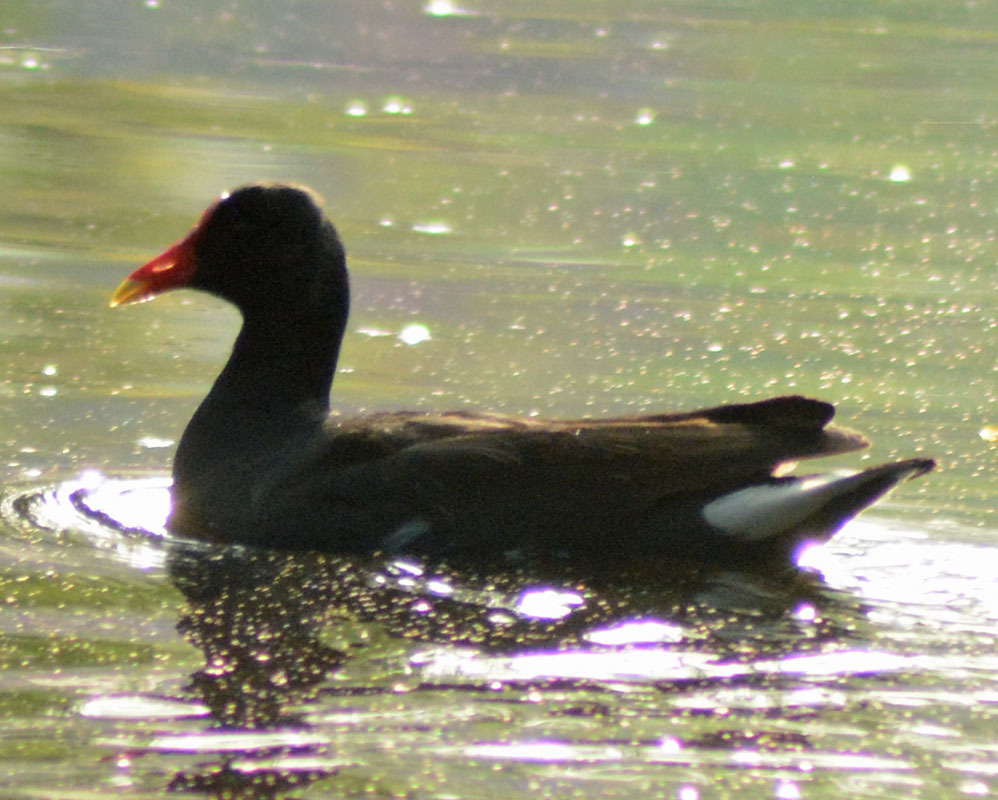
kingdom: Animalia
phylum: Chordata
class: Aves
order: Gruiformes
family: Rallidae
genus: Gallinula
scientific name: Gallinula chloropus
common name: Common moorhen
